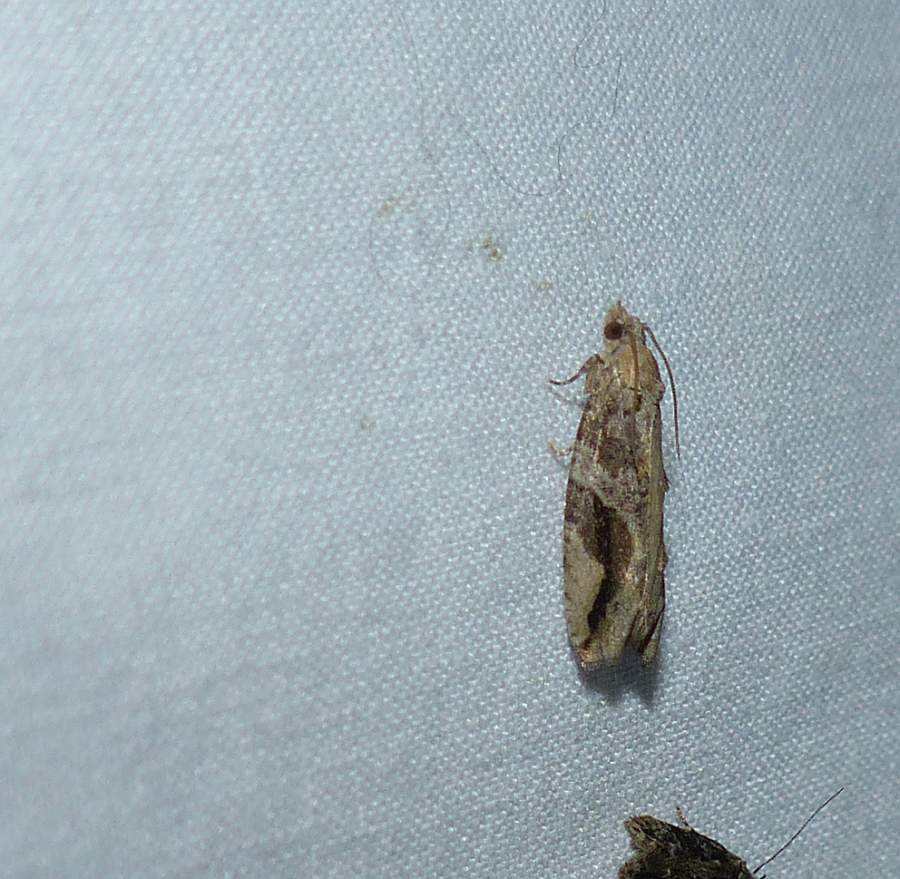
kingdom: Animalia
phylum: Arthropoda
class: Insecta
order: Lepidoptera
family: Tortricidae
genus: Proteoteras
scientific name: Proteoteras crescentana
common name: Black-crescent proteoteras moth
